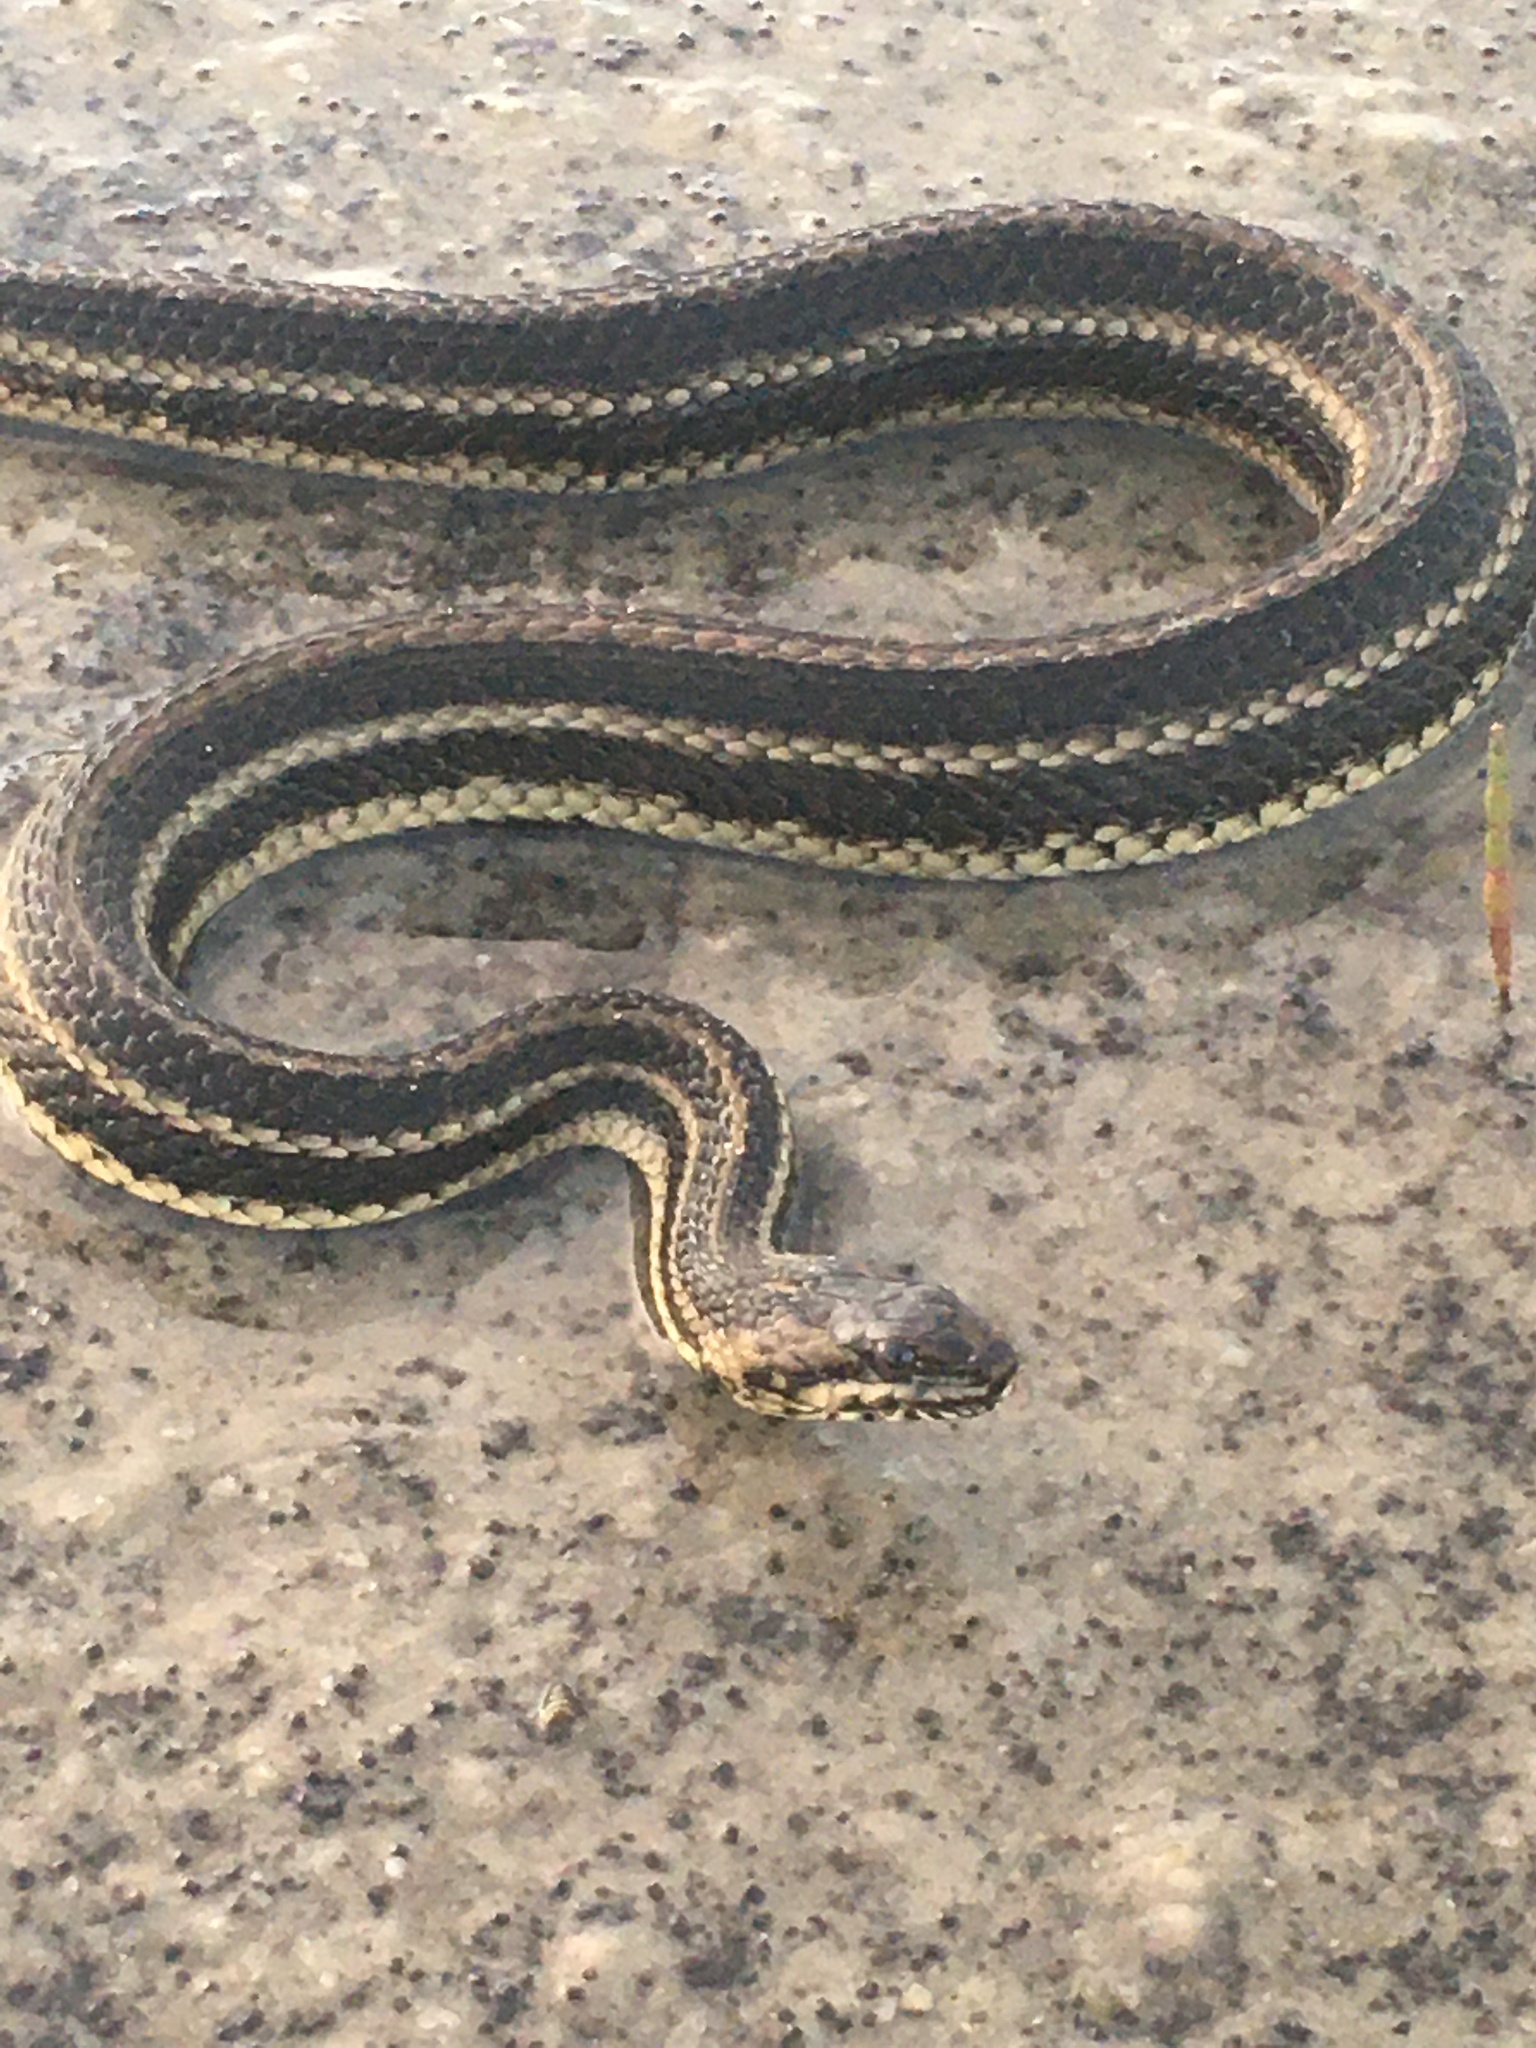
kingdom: Animalia
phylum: Chordata
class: Squamata
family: Colubridae
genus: Nerodia
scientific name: Nerodia clarkii
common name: Atlantic saltmarsh snake
